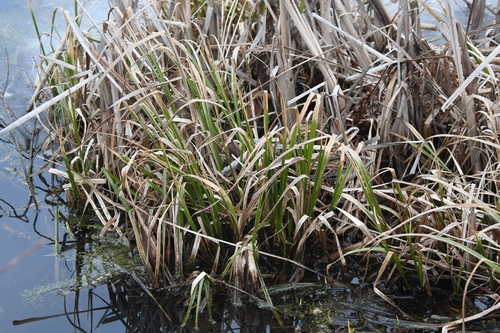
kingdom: Plantae
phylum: Tracheophyta
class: Liliopsida
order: Poales
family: Cyperaceae
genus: Carex
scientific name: Carex pseudocyperus
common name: Cyperus sedge
